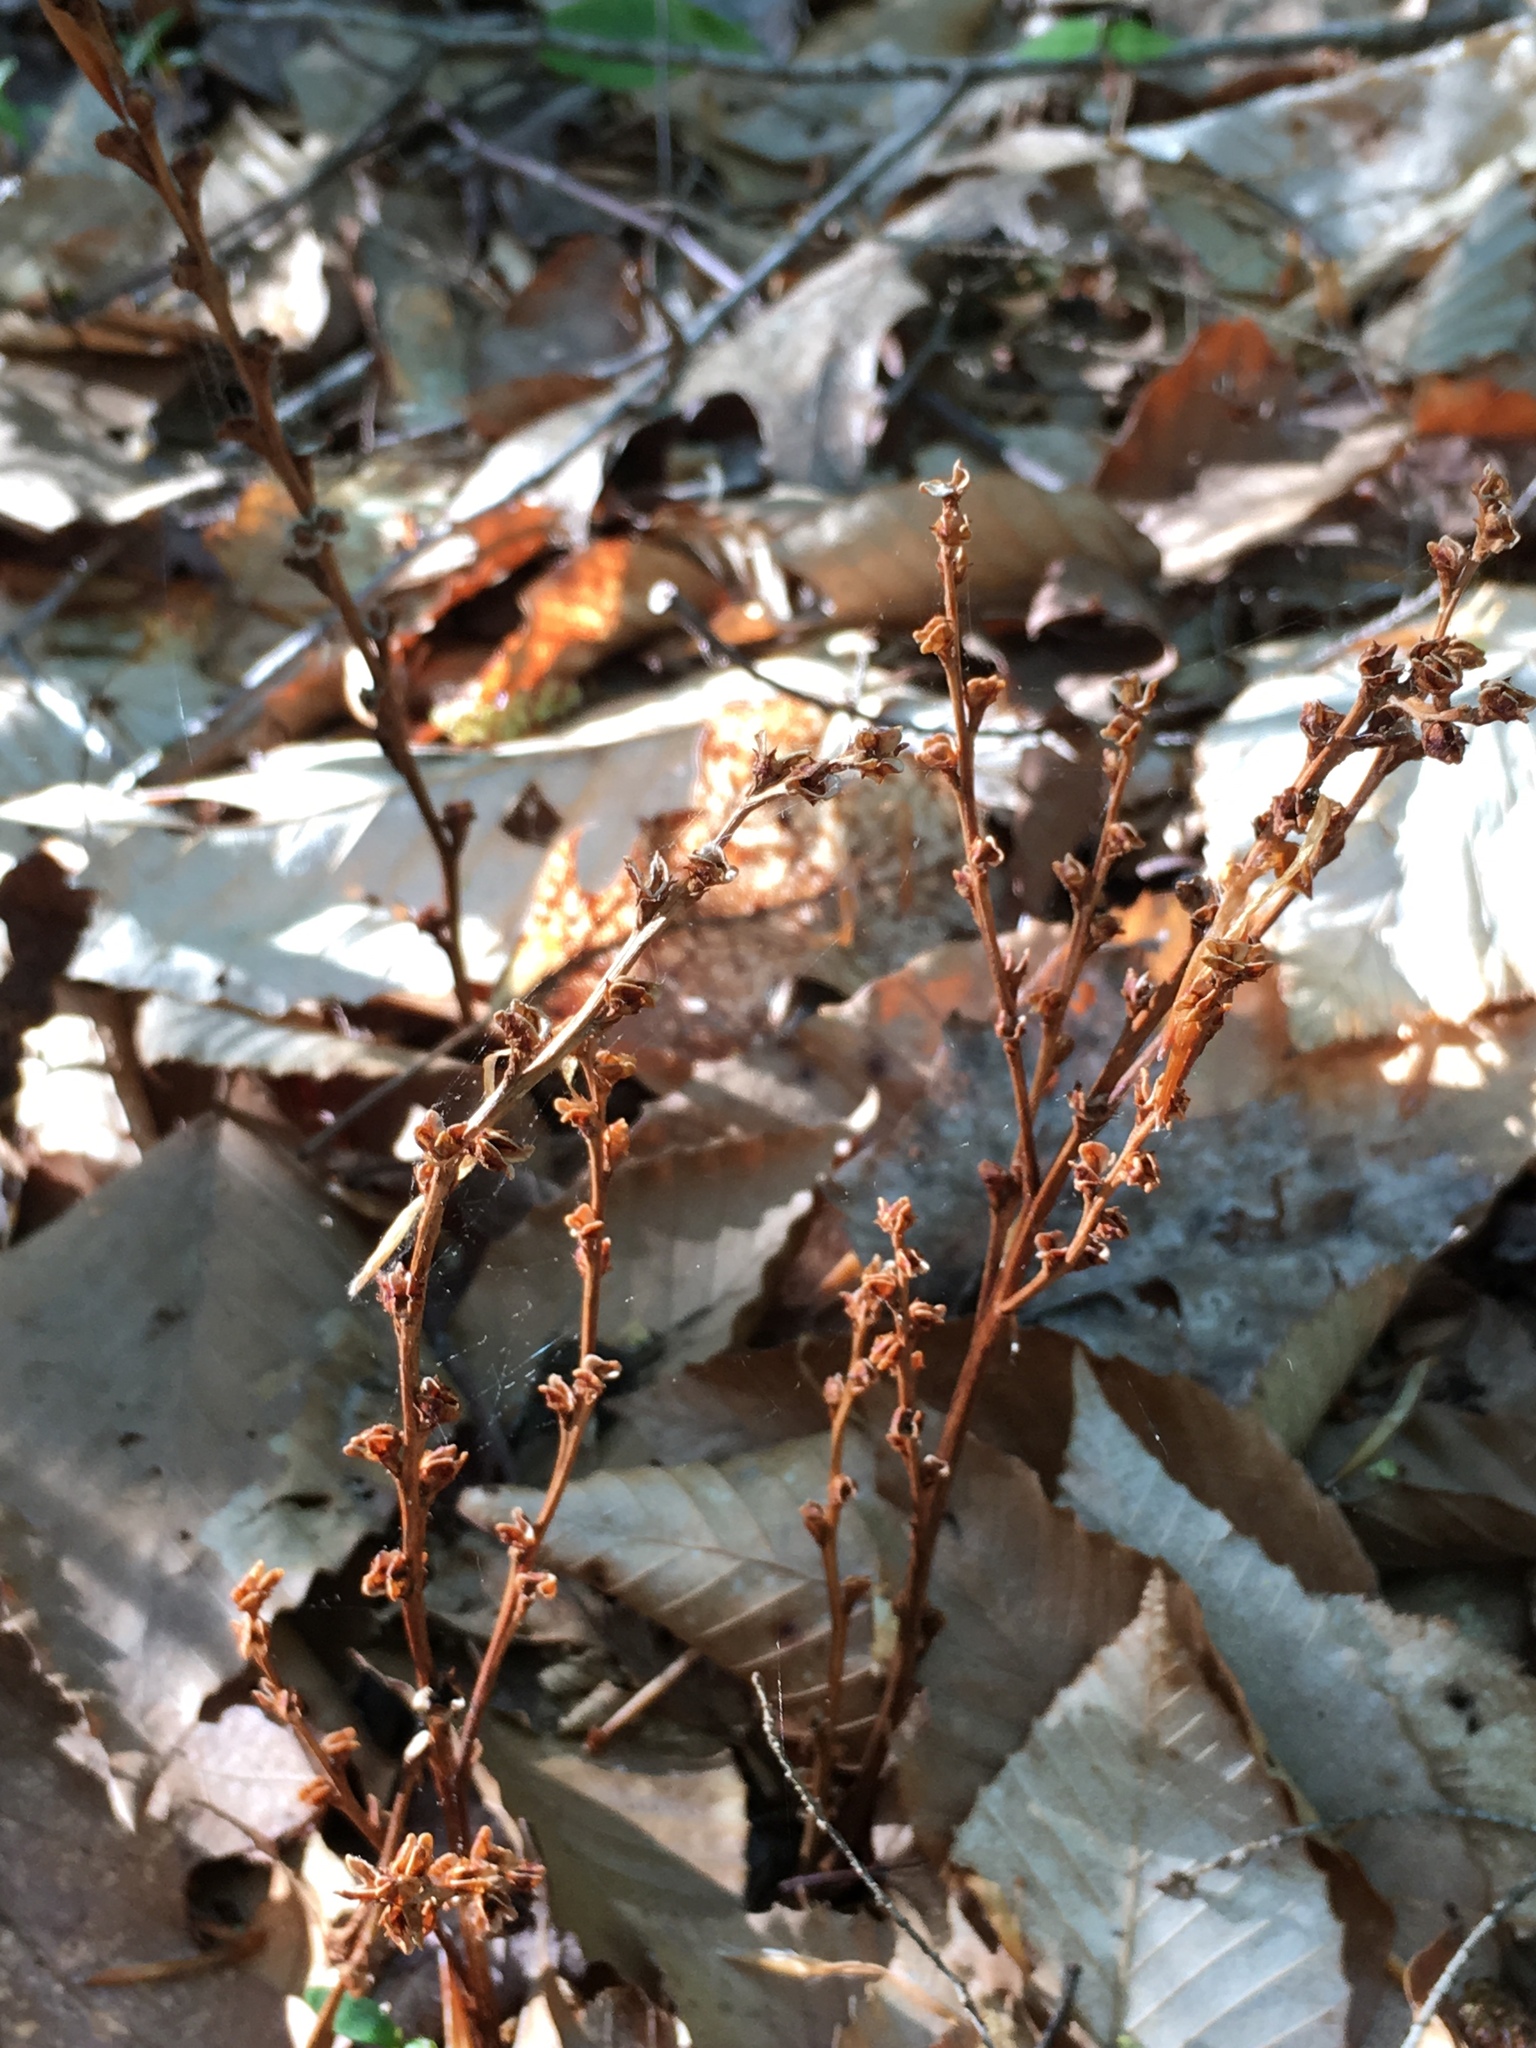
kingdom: Plantae
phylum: Tracheophyta
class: Magnoliopsida
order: Lamiales
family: Orobanchaceae
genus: Epifagus
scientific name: Epifagus virginiana
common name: Beechdrops
